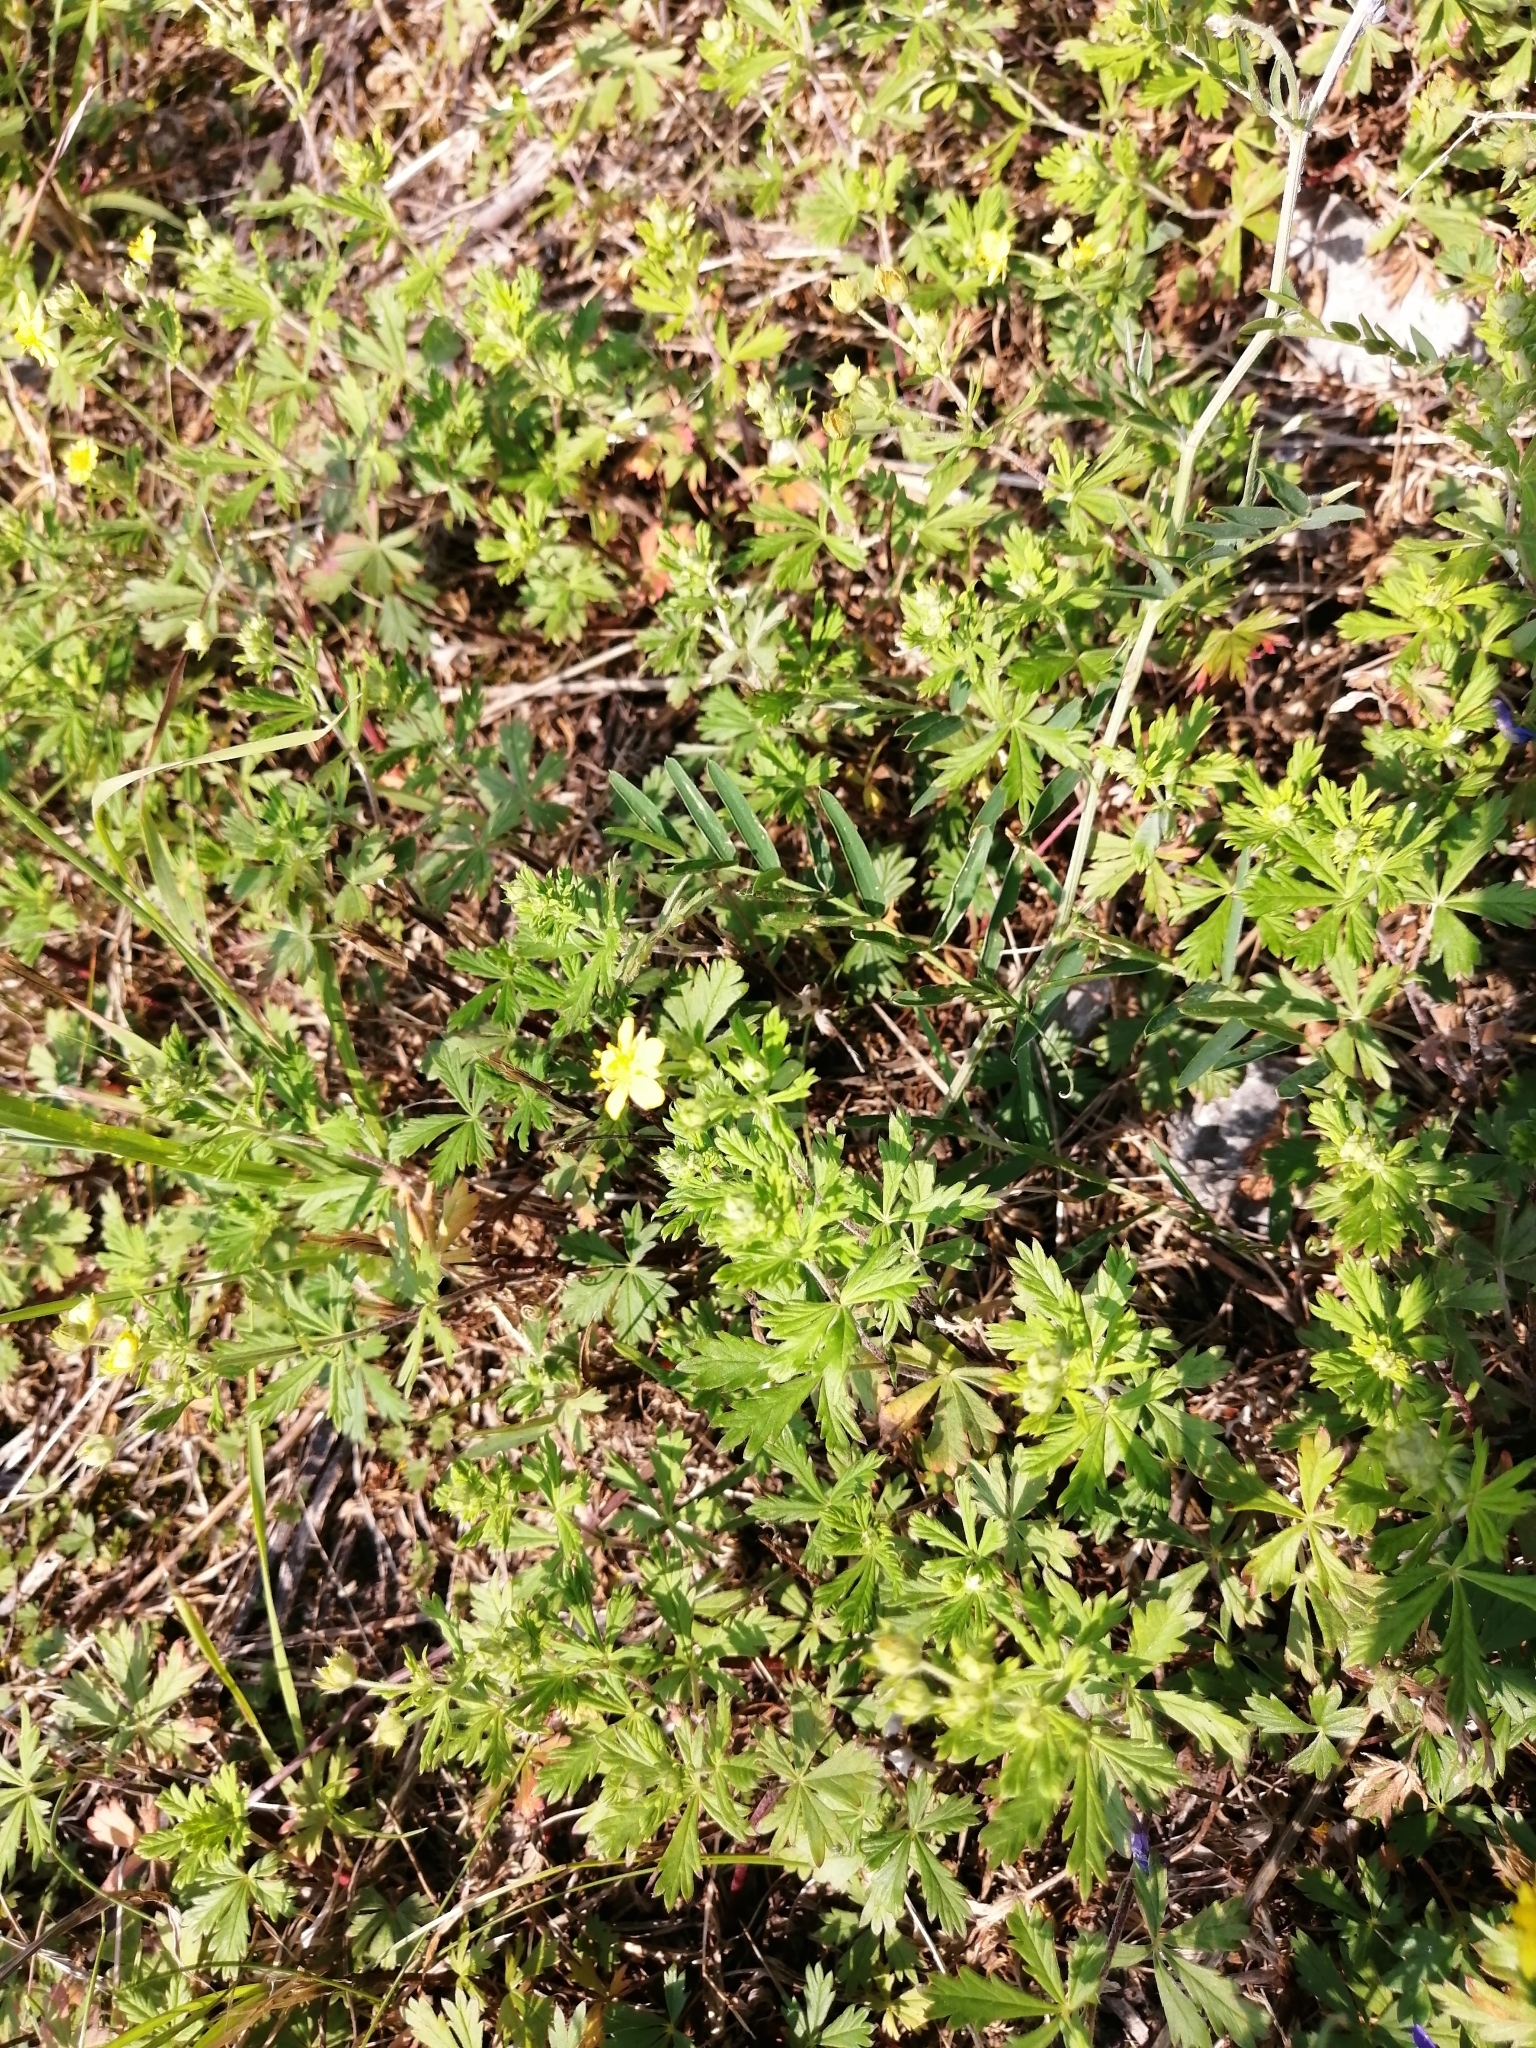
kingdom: Plantae
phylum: Tracheophyta
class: Magnoliopsida
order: Rosales
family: Rosaceae
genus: Potentilla
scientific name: Potentilla argentea
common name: Hoary cinquefoil
